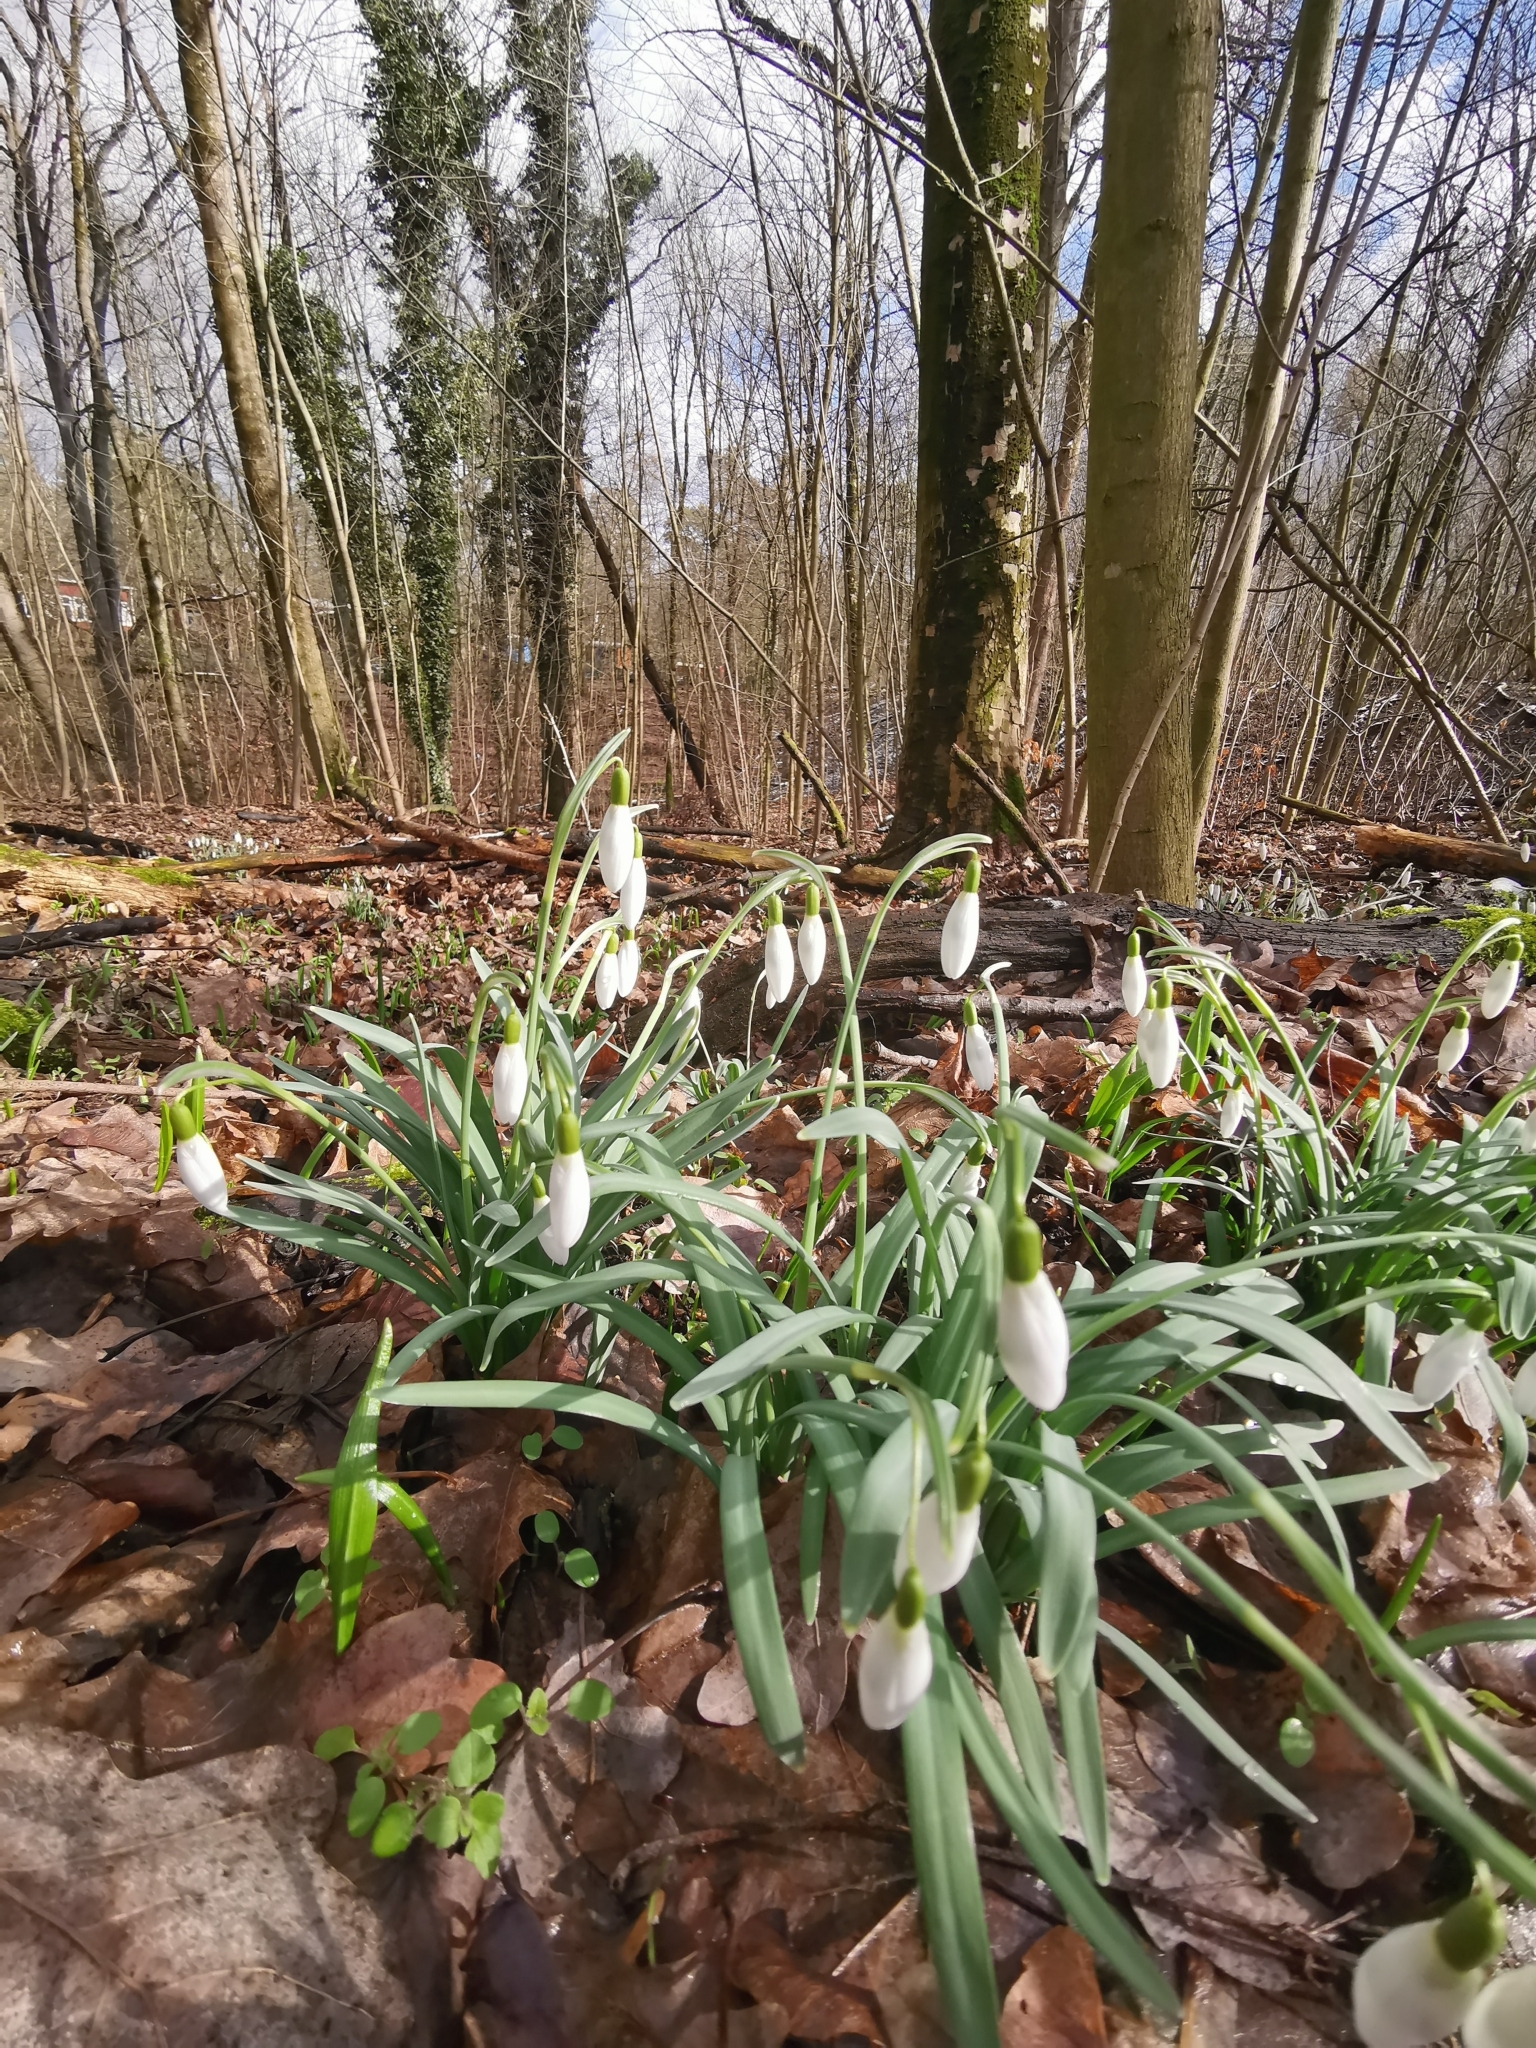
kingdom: Plantae
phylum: Tracheophyta
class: Liliopsida
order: Asparagales
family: Amaryllidaceae
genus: Galanthus
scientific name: Galanthus nivalis
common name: Snowdrop
